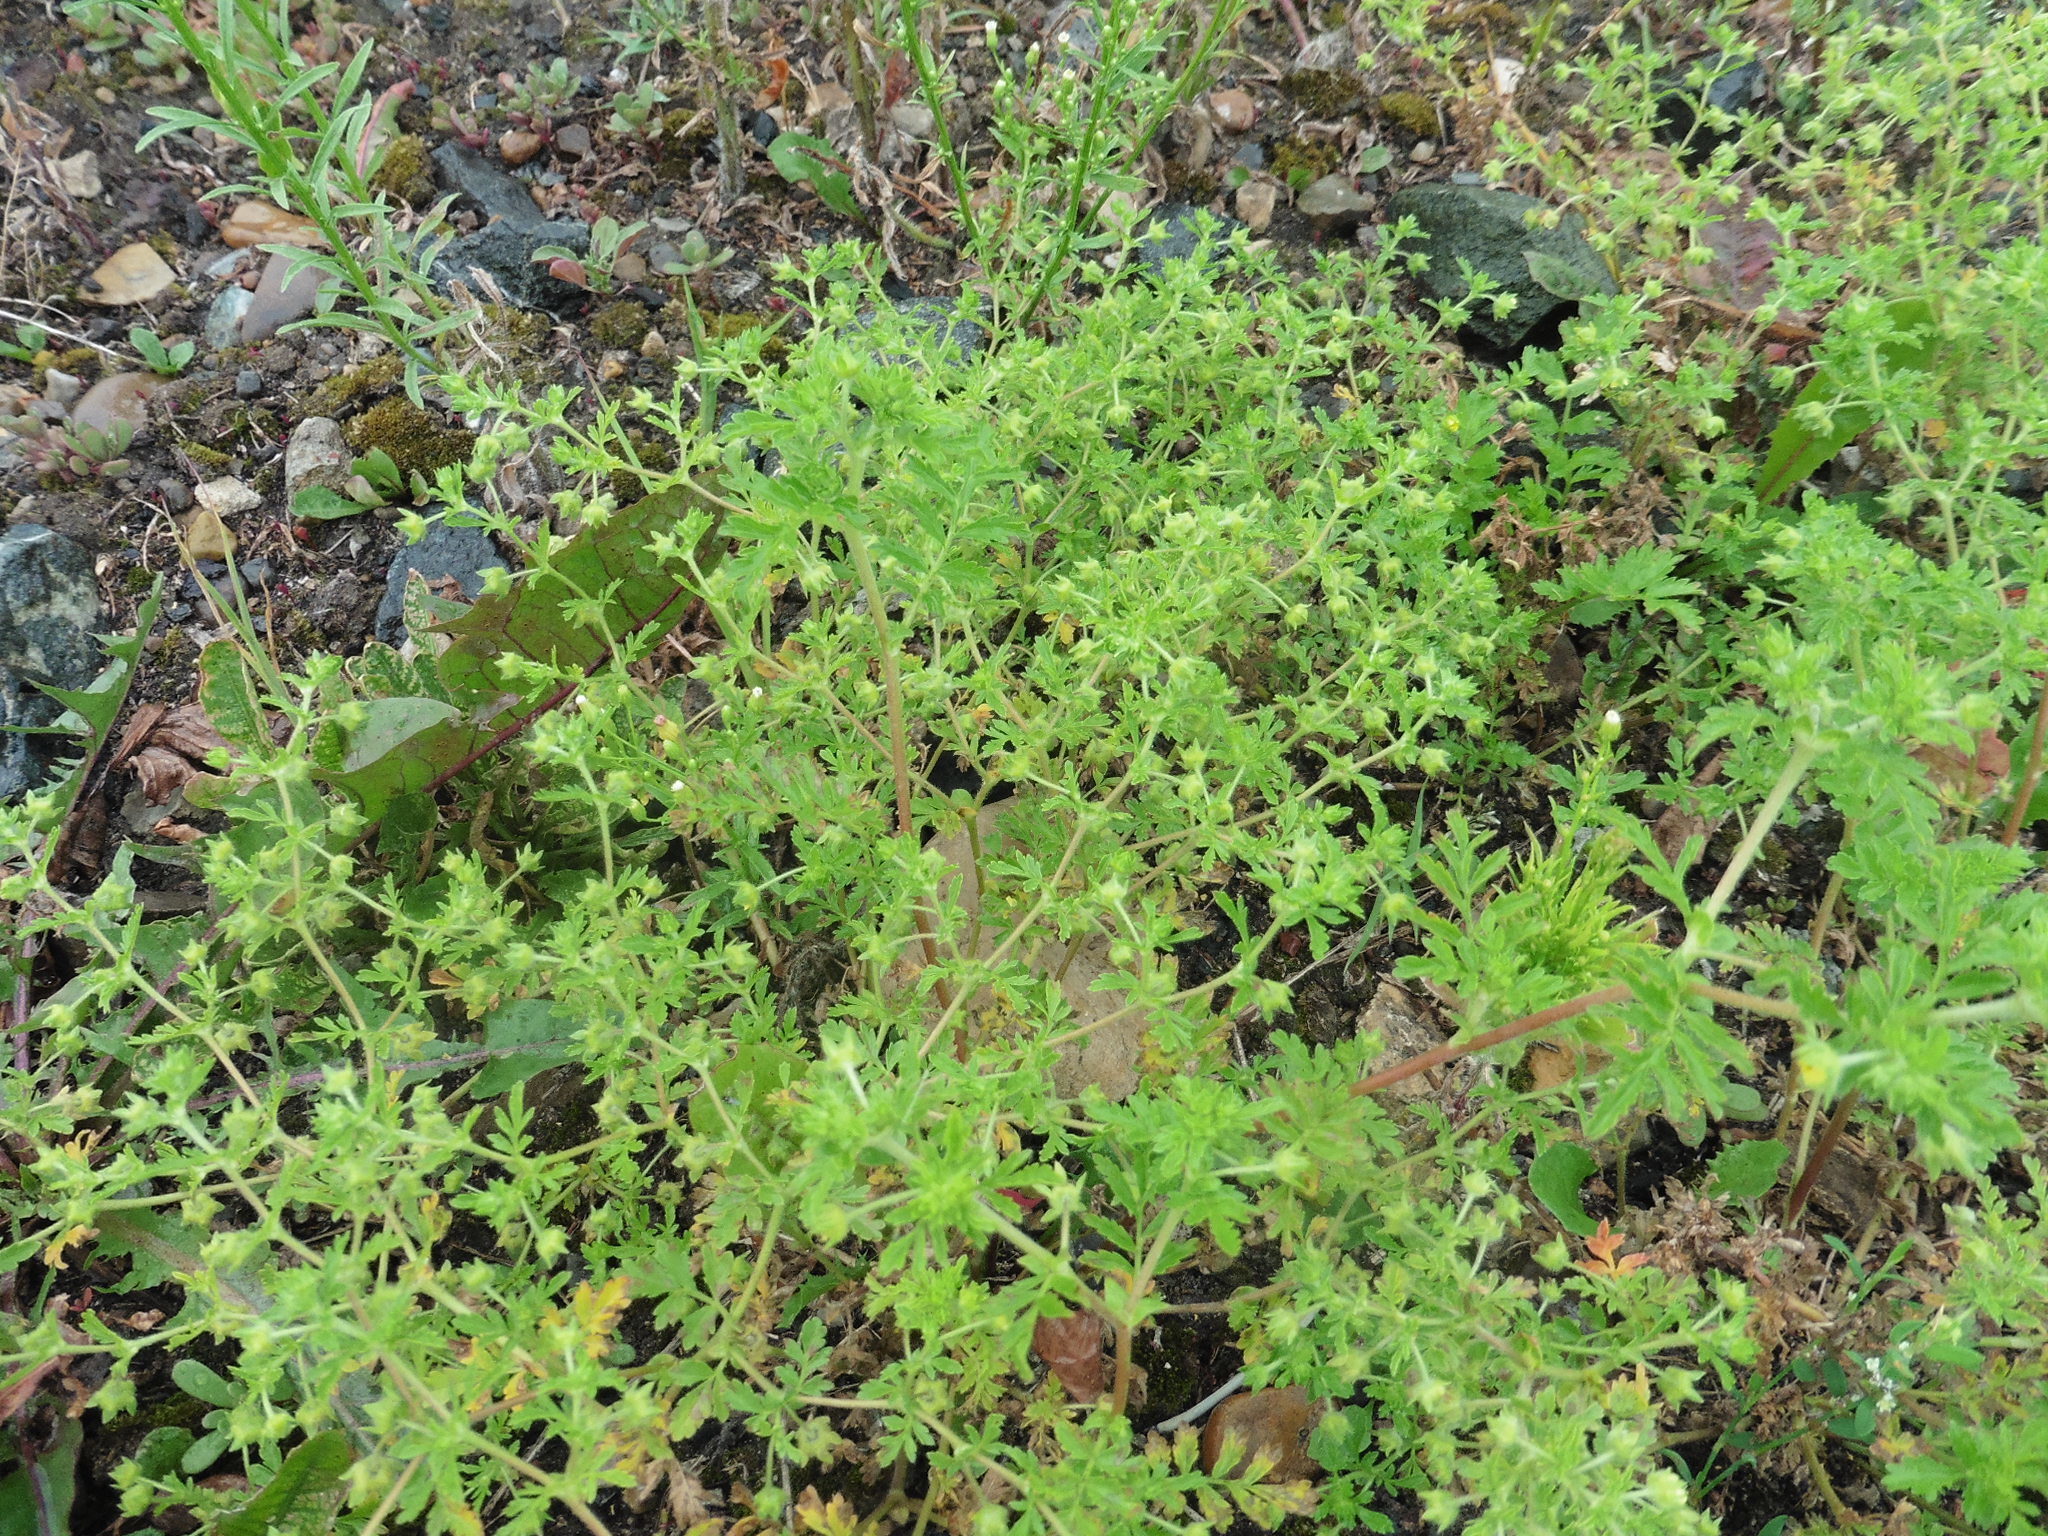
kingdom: Plantae
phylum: Tracheophyta
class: Magnoliopsida
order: Rosales
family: Rosaceae
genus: Potentilla
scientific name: Potentilla supina
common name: Prostrate cinquefoil
